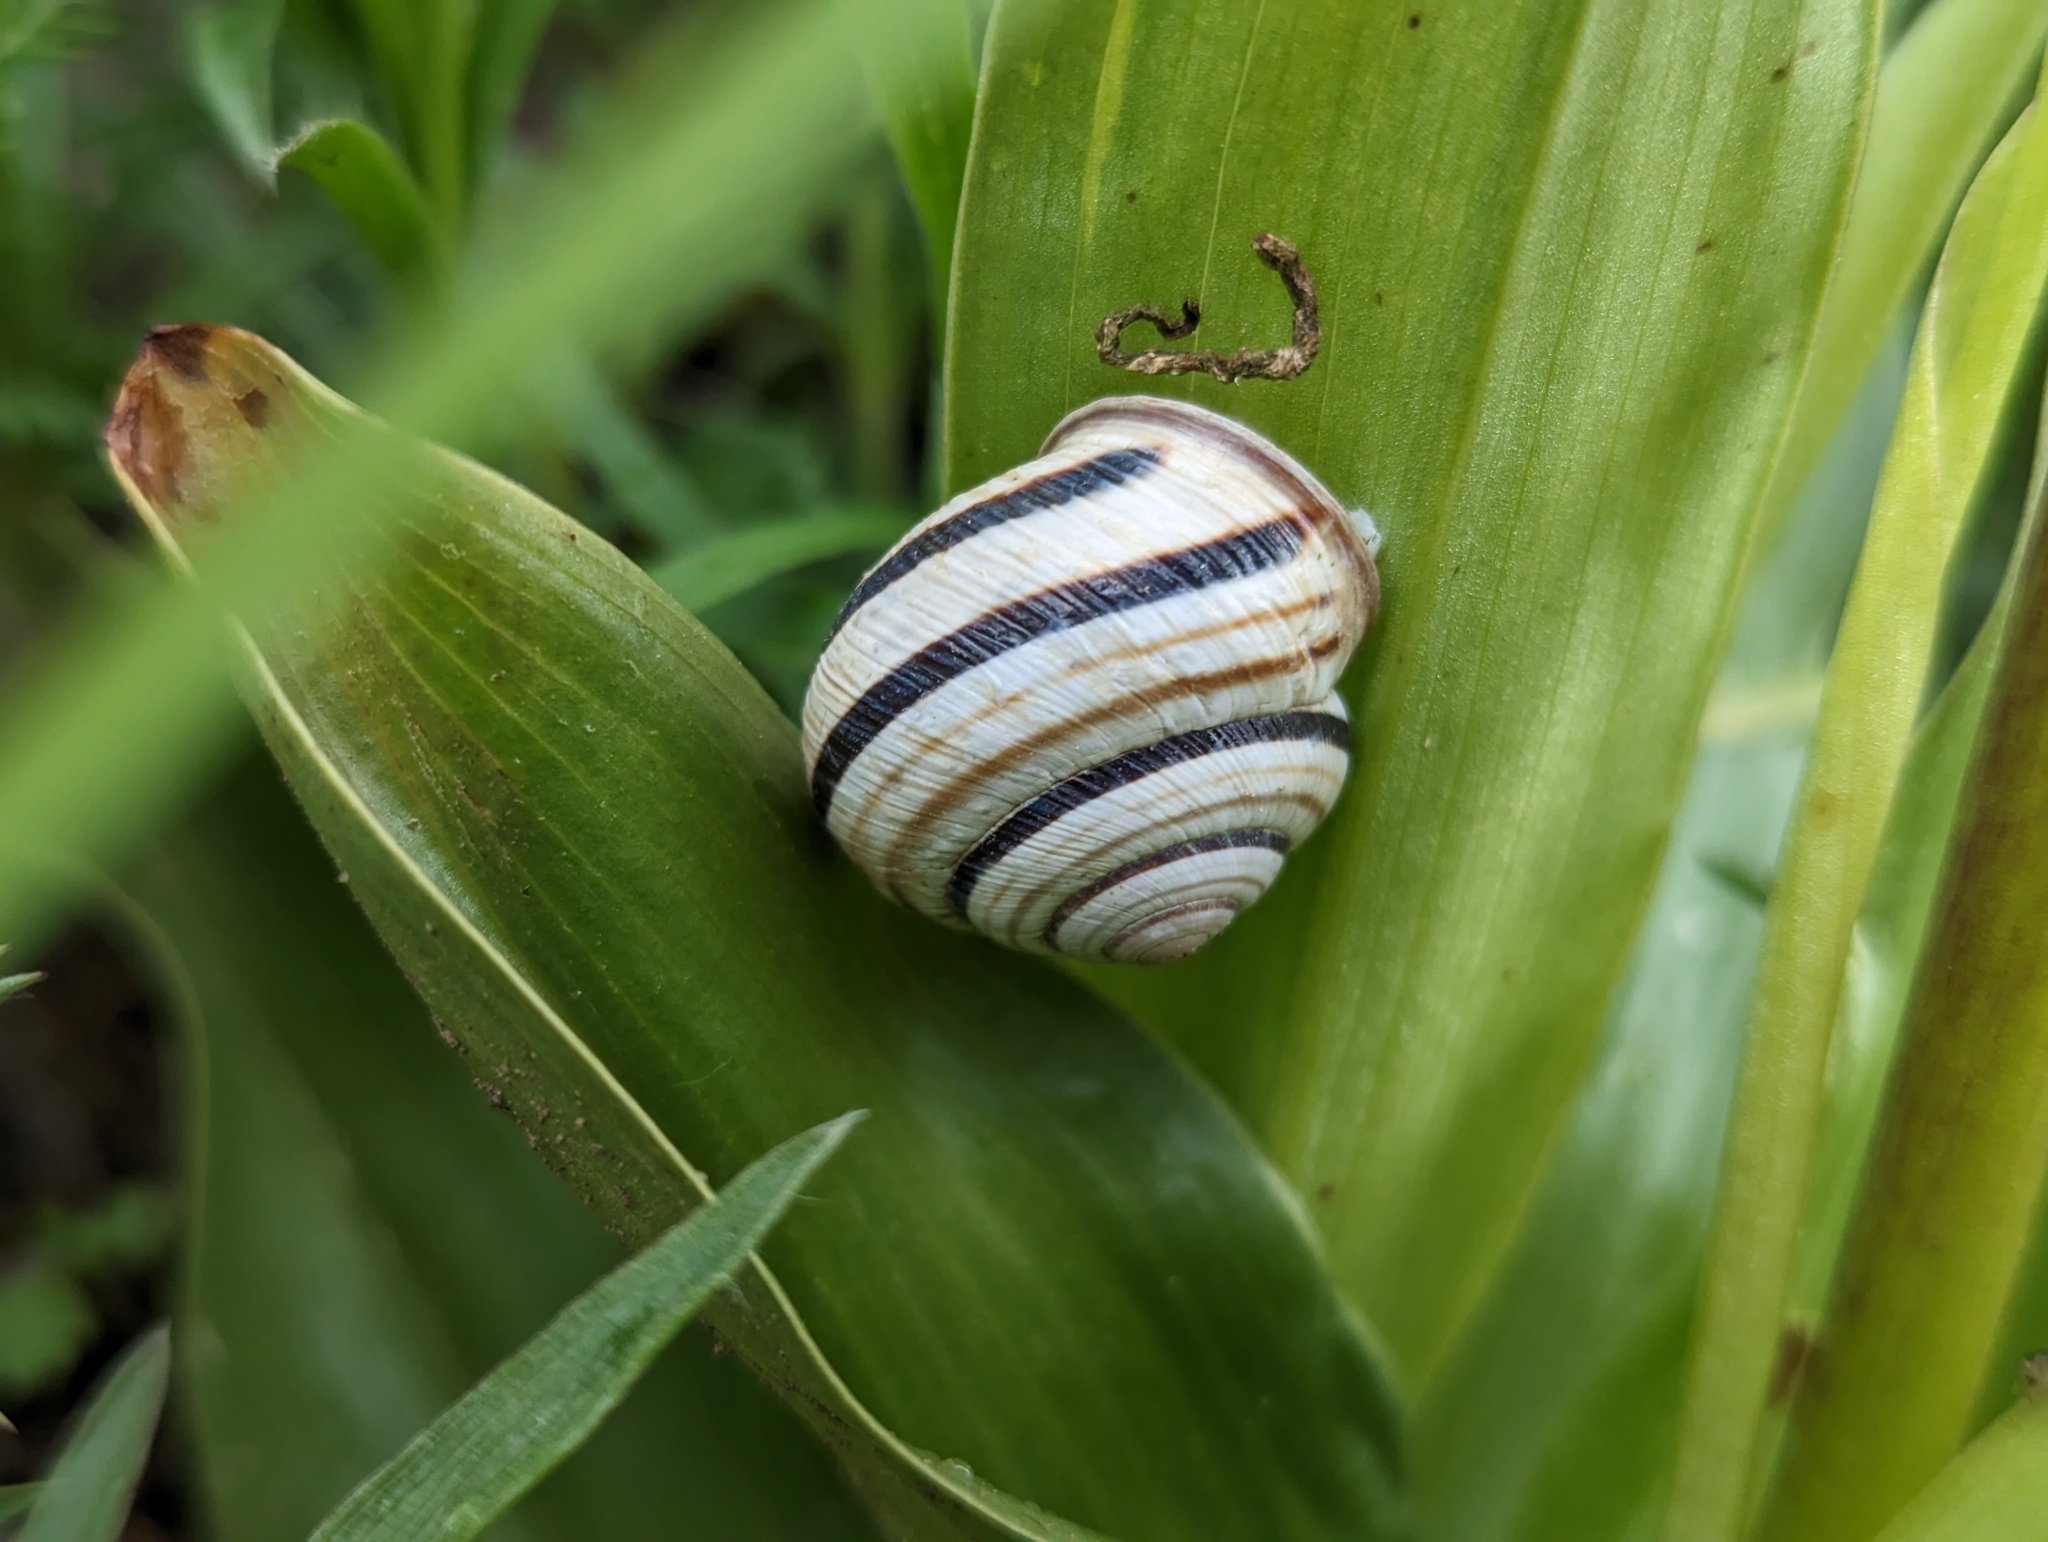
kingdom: Animalia
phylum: Mollusca
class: Gastropoda
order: Stylommatophora
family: Helicidae
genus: Caucasotachea
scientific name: Caucasotachea vindobonensis
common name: European helicid land snail
